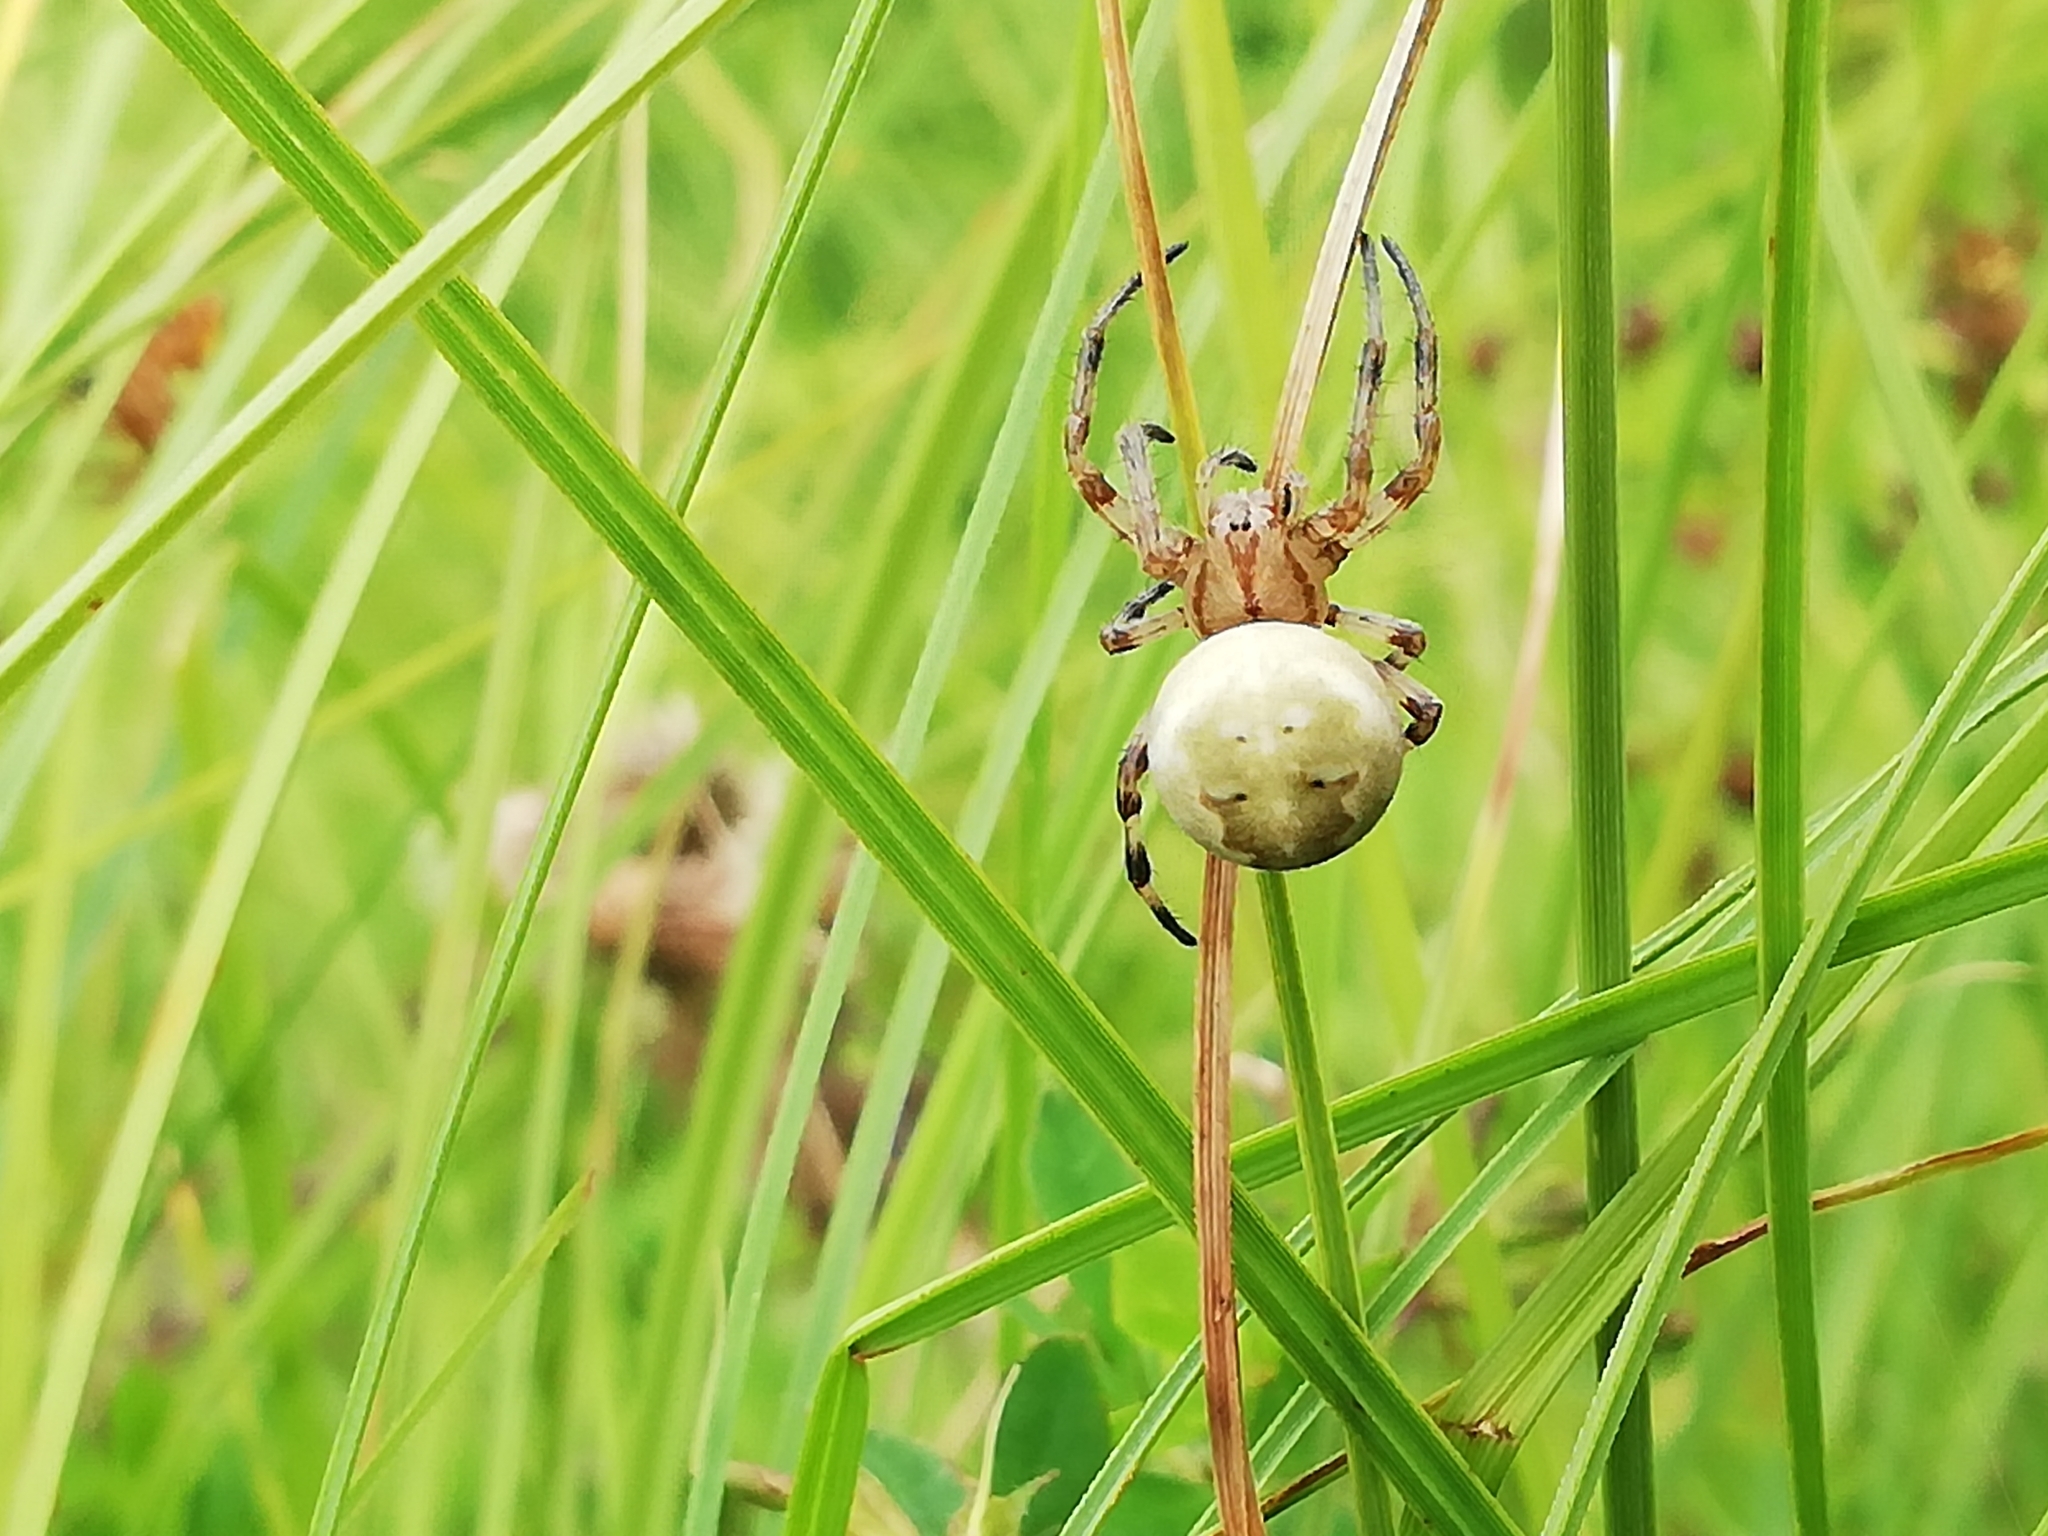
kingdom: Animalia
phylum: Arthropoda
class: Arachnida
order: Araneae
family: Araneidae
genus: Araneus
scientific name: Araneus quadratus
